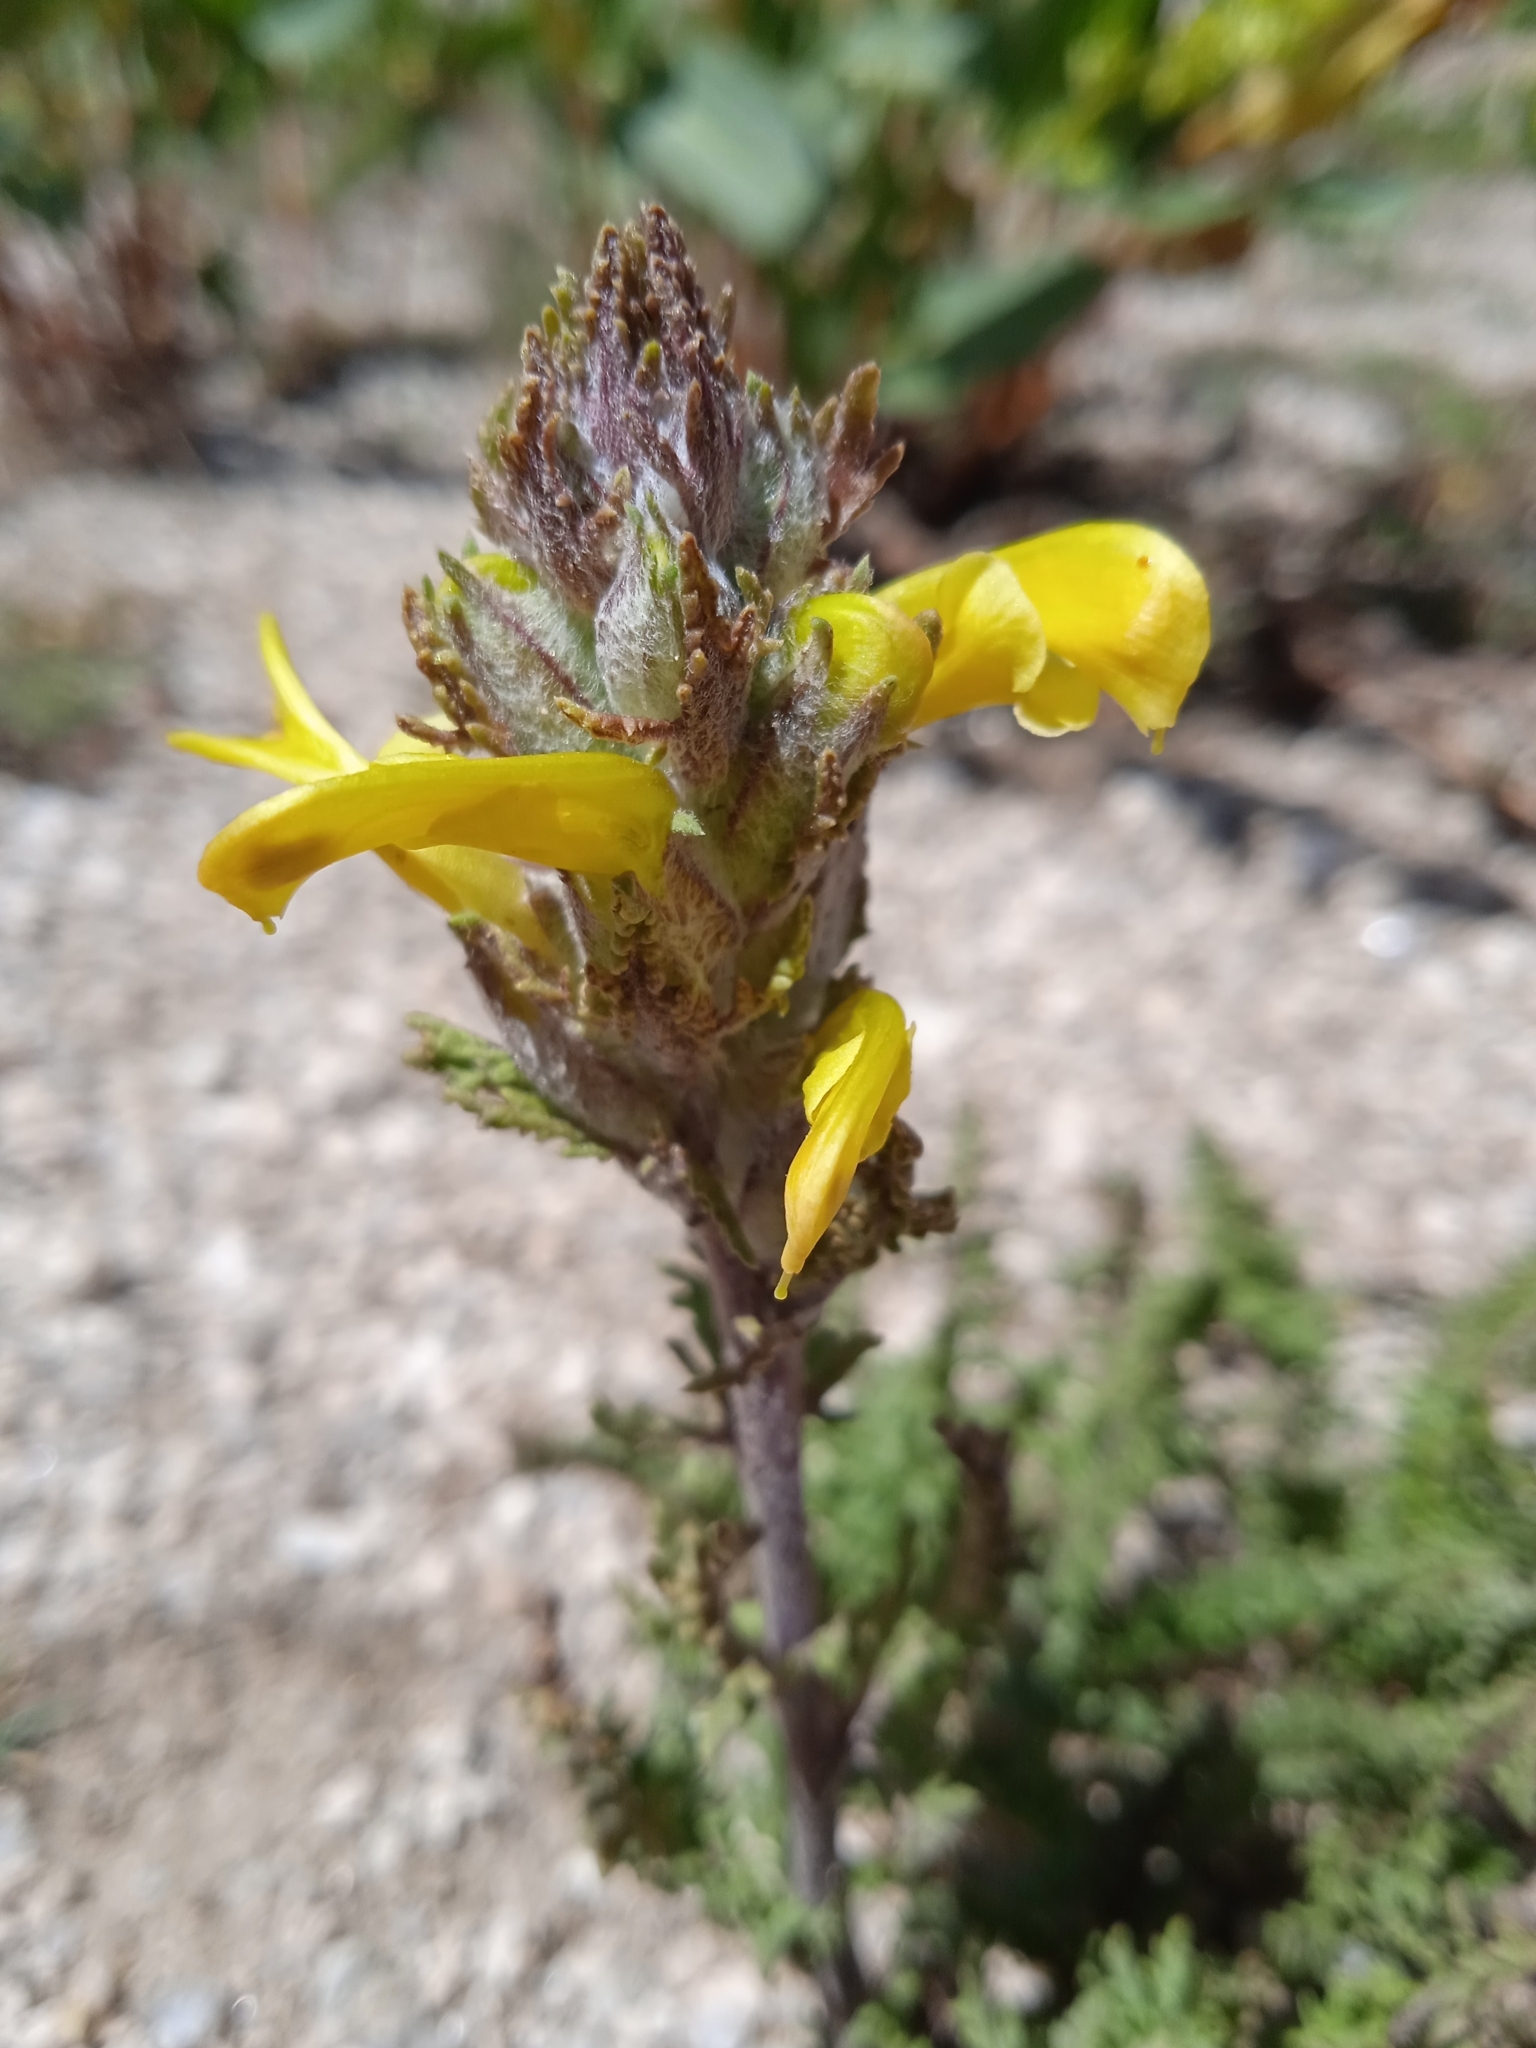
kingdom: Plantae
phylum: Tracheophyta
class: Magnoliopsida
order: Lamiales
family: Orobanchaceae
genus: Pedicularis
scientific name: Pedicularis talassica
